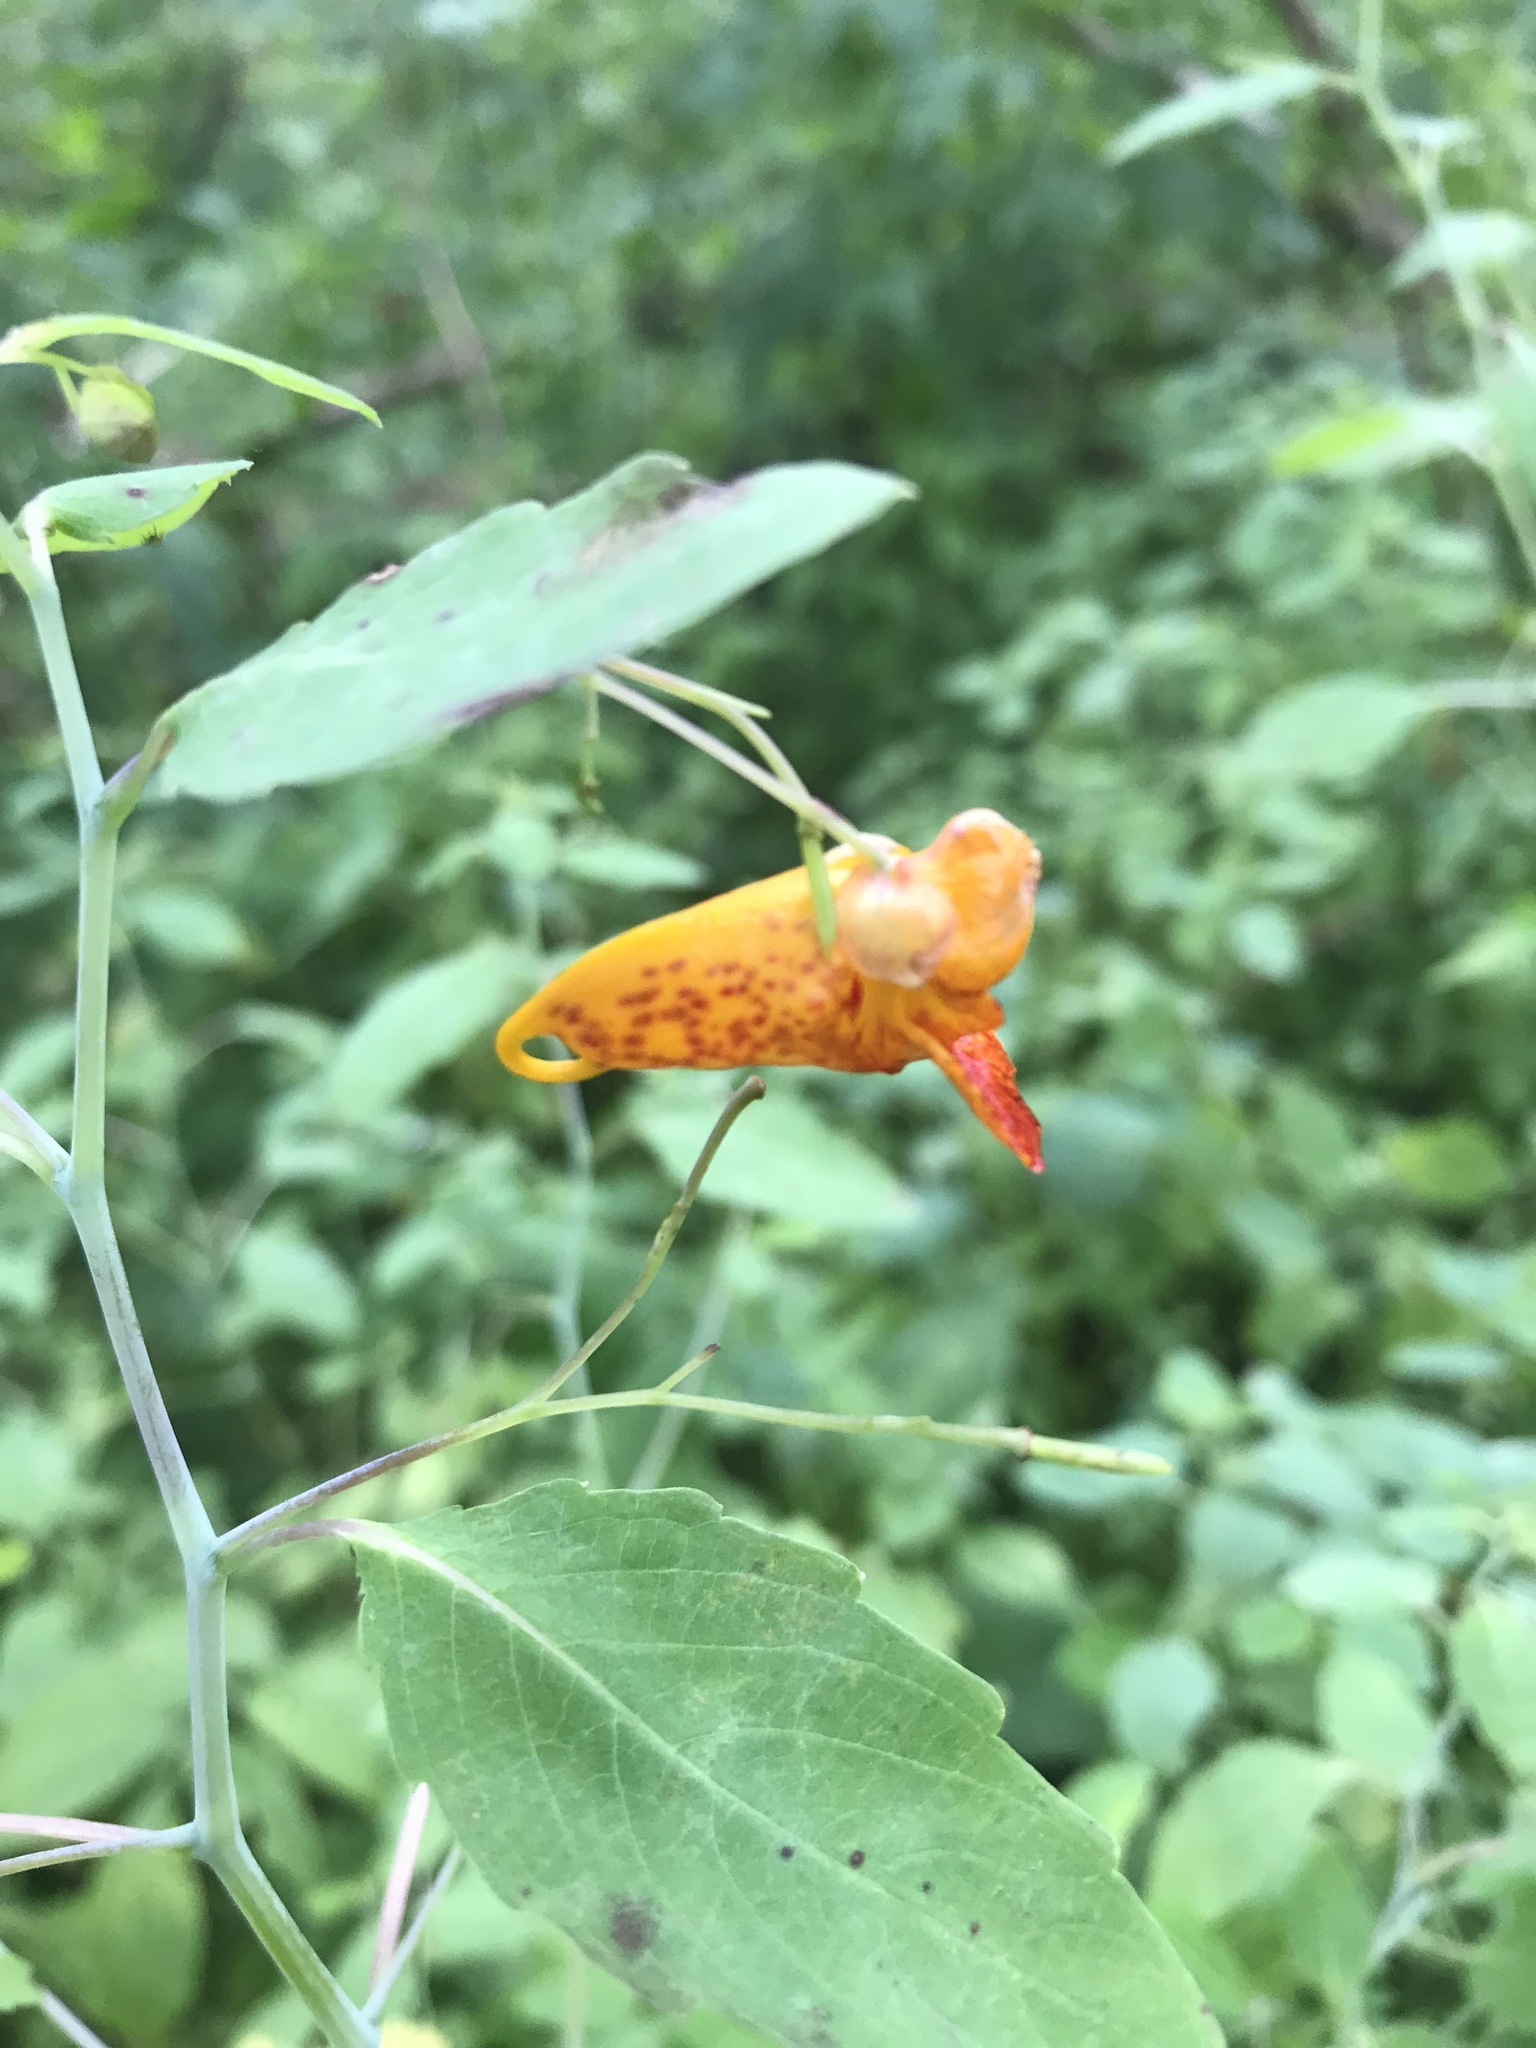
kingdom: Plantae
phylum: Tracheophyta
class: Magnoliopsida
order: Ericales
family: Balsaminaceae
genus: Impatiens
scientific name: Impatiens capensis
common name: Orange balsam
